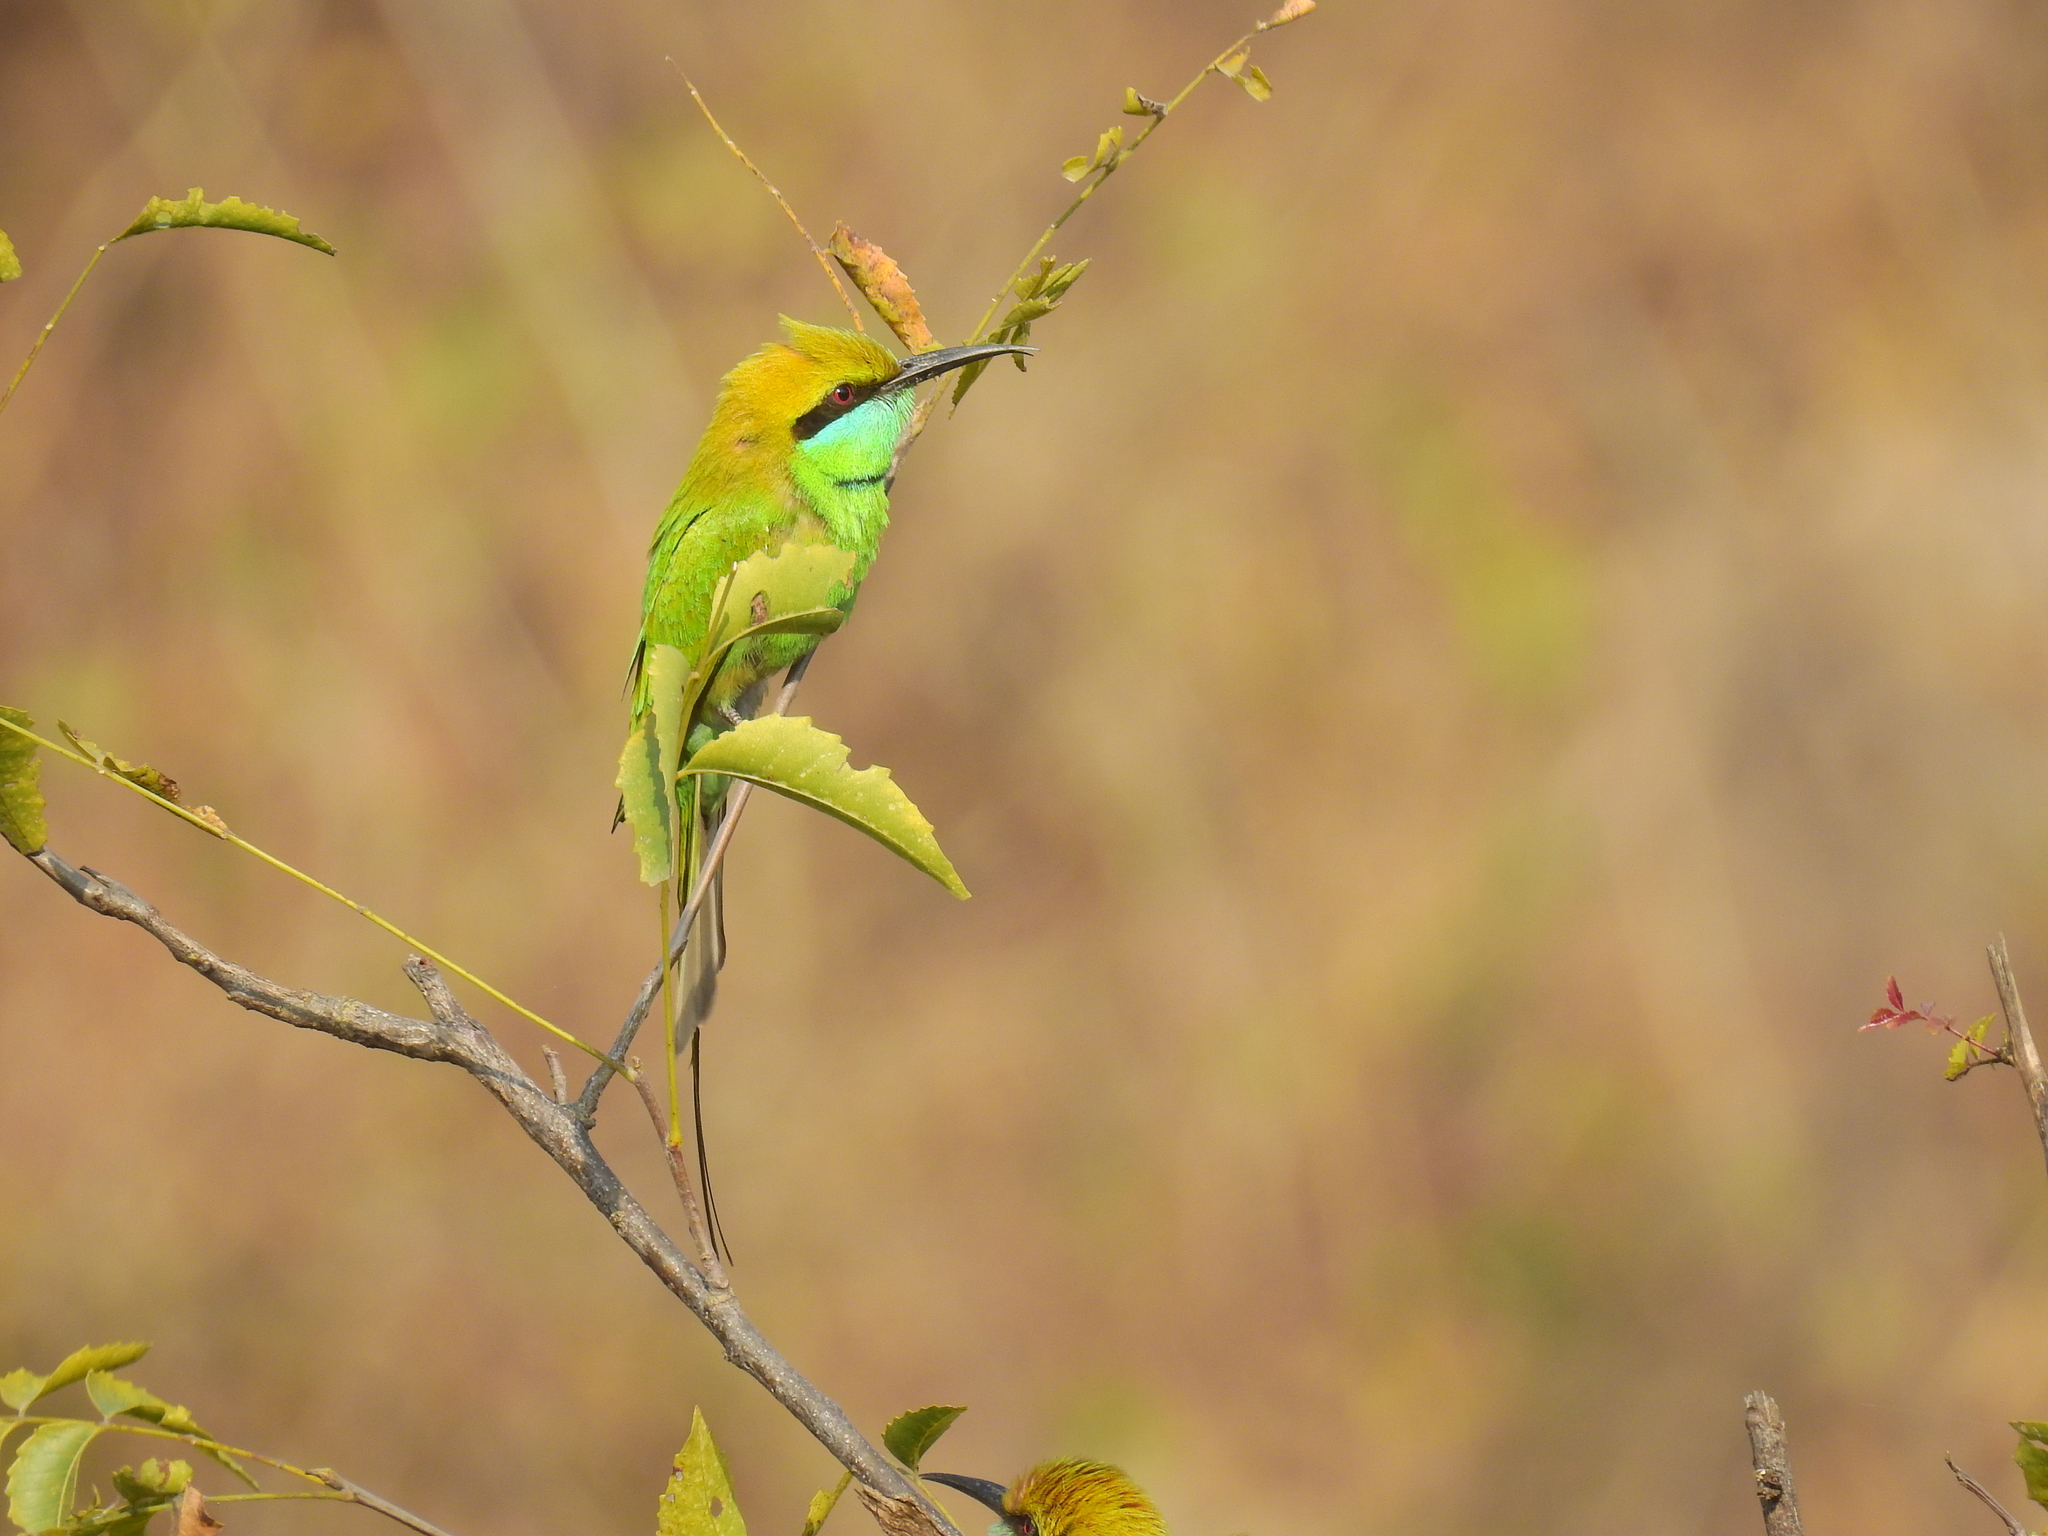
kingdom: Animalia
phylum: Chordata
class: Aves
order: Coraciiformes
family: Meropidae
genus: Merops
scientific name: Merops orientalis
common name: Green bee-eater
